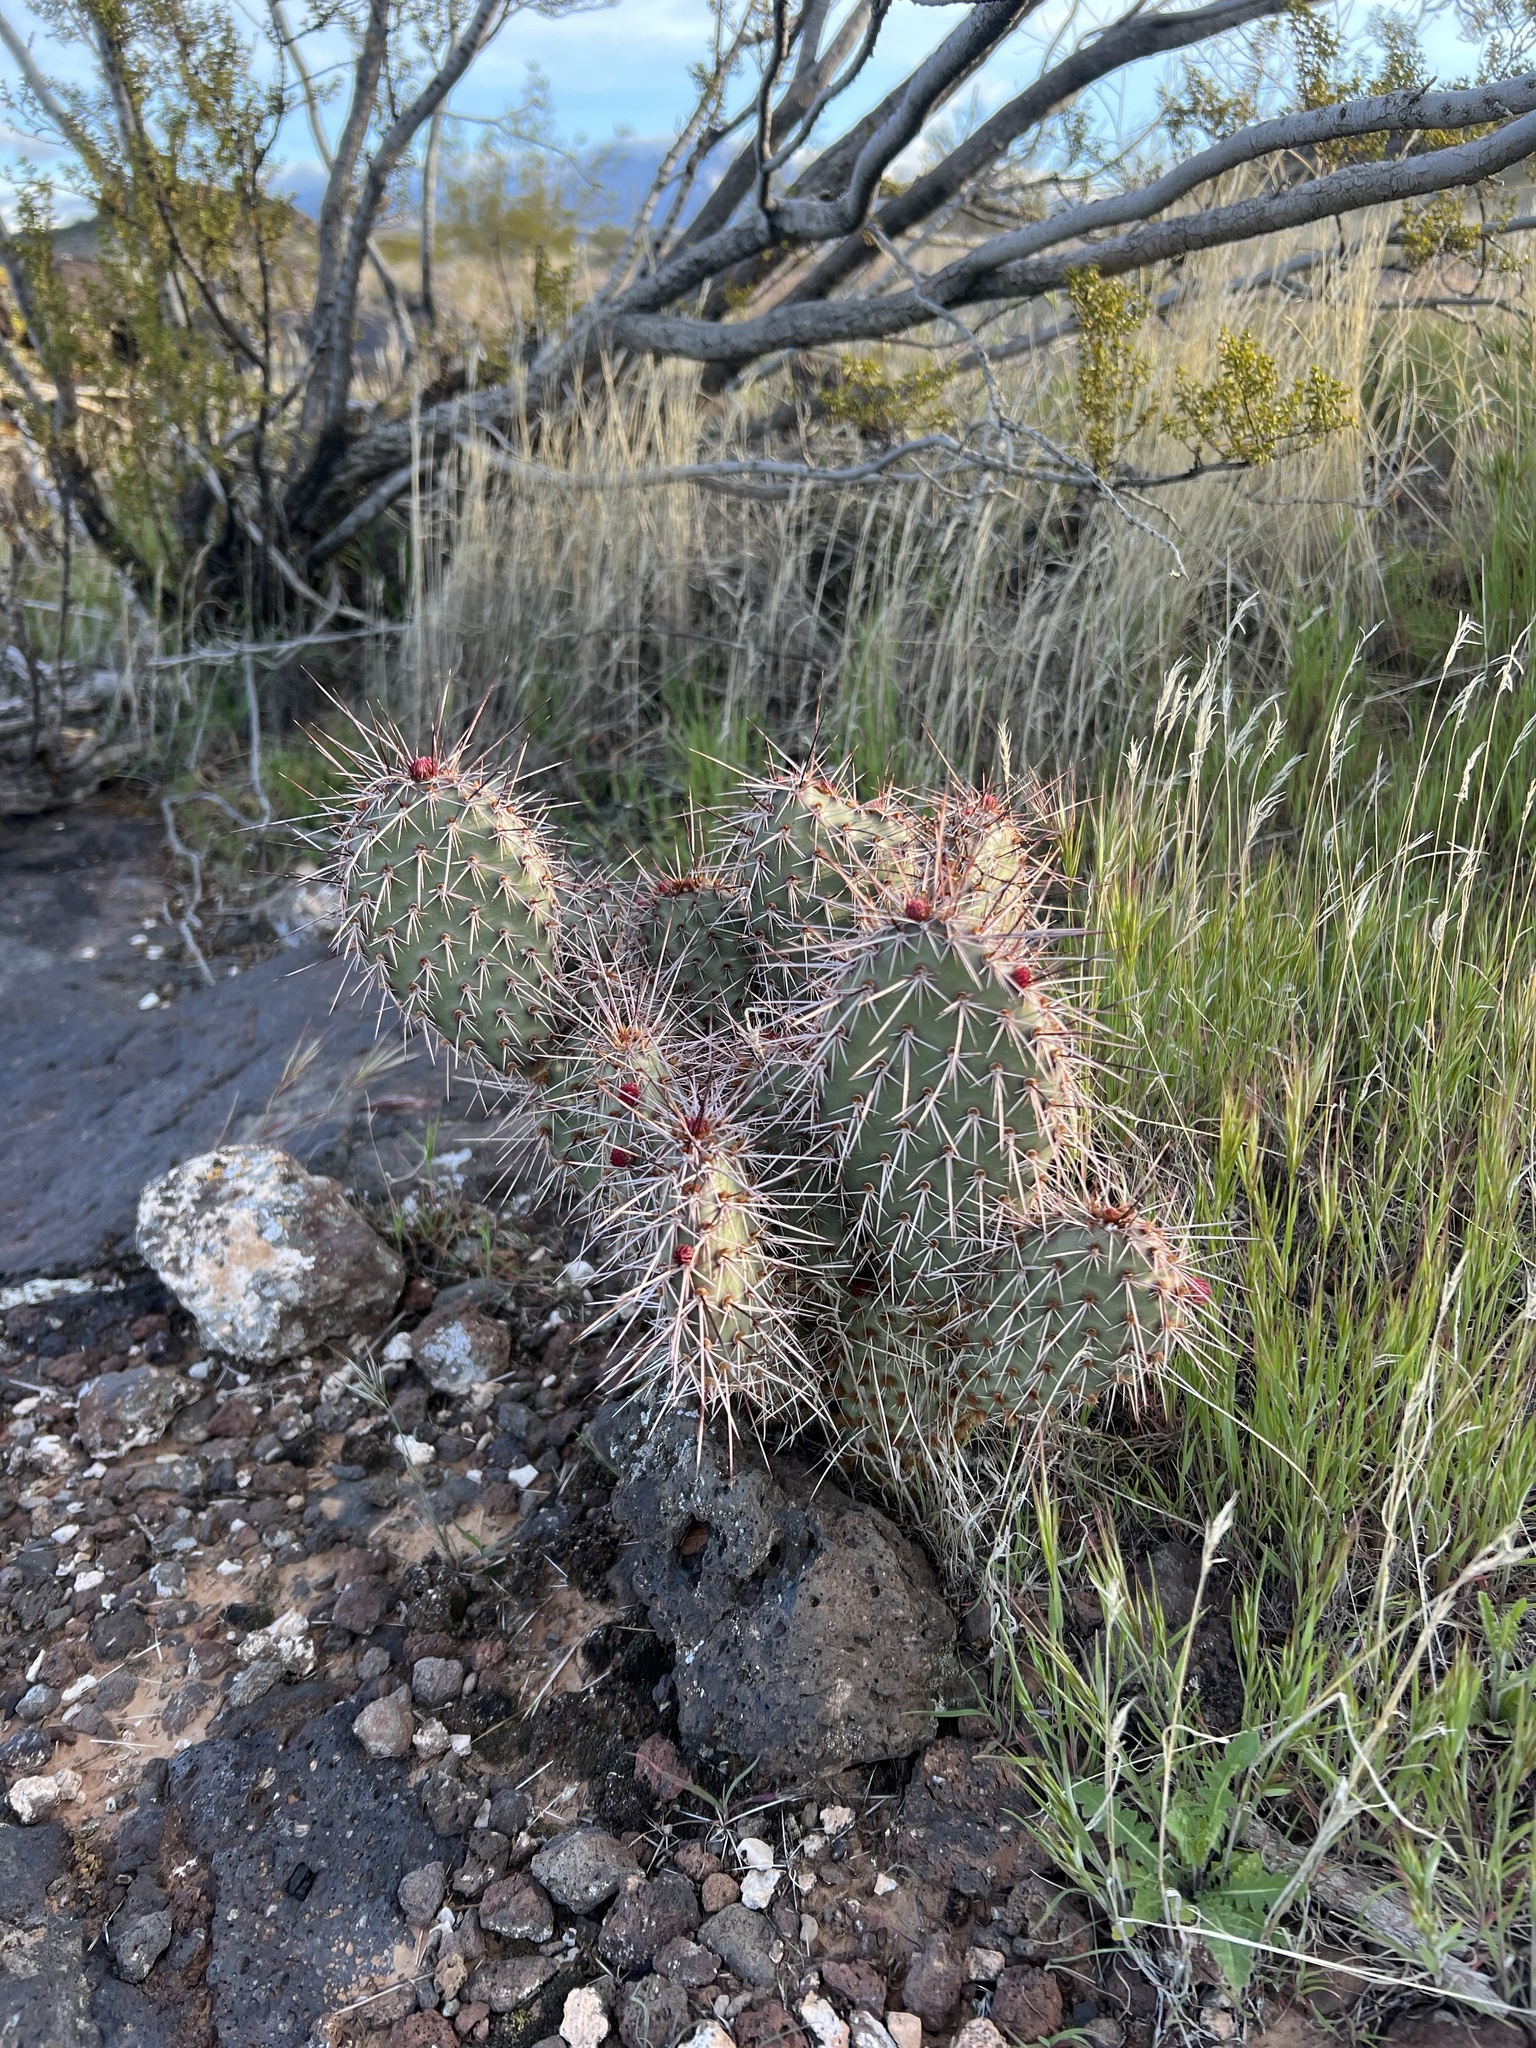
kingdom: Plantae
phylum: Tracheophyta
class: Magnoliopsida
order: Caryophyllales
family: Cactaceae
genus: Opuntia
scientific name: Opuntia polyacantha
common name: Plains prickly-pear
